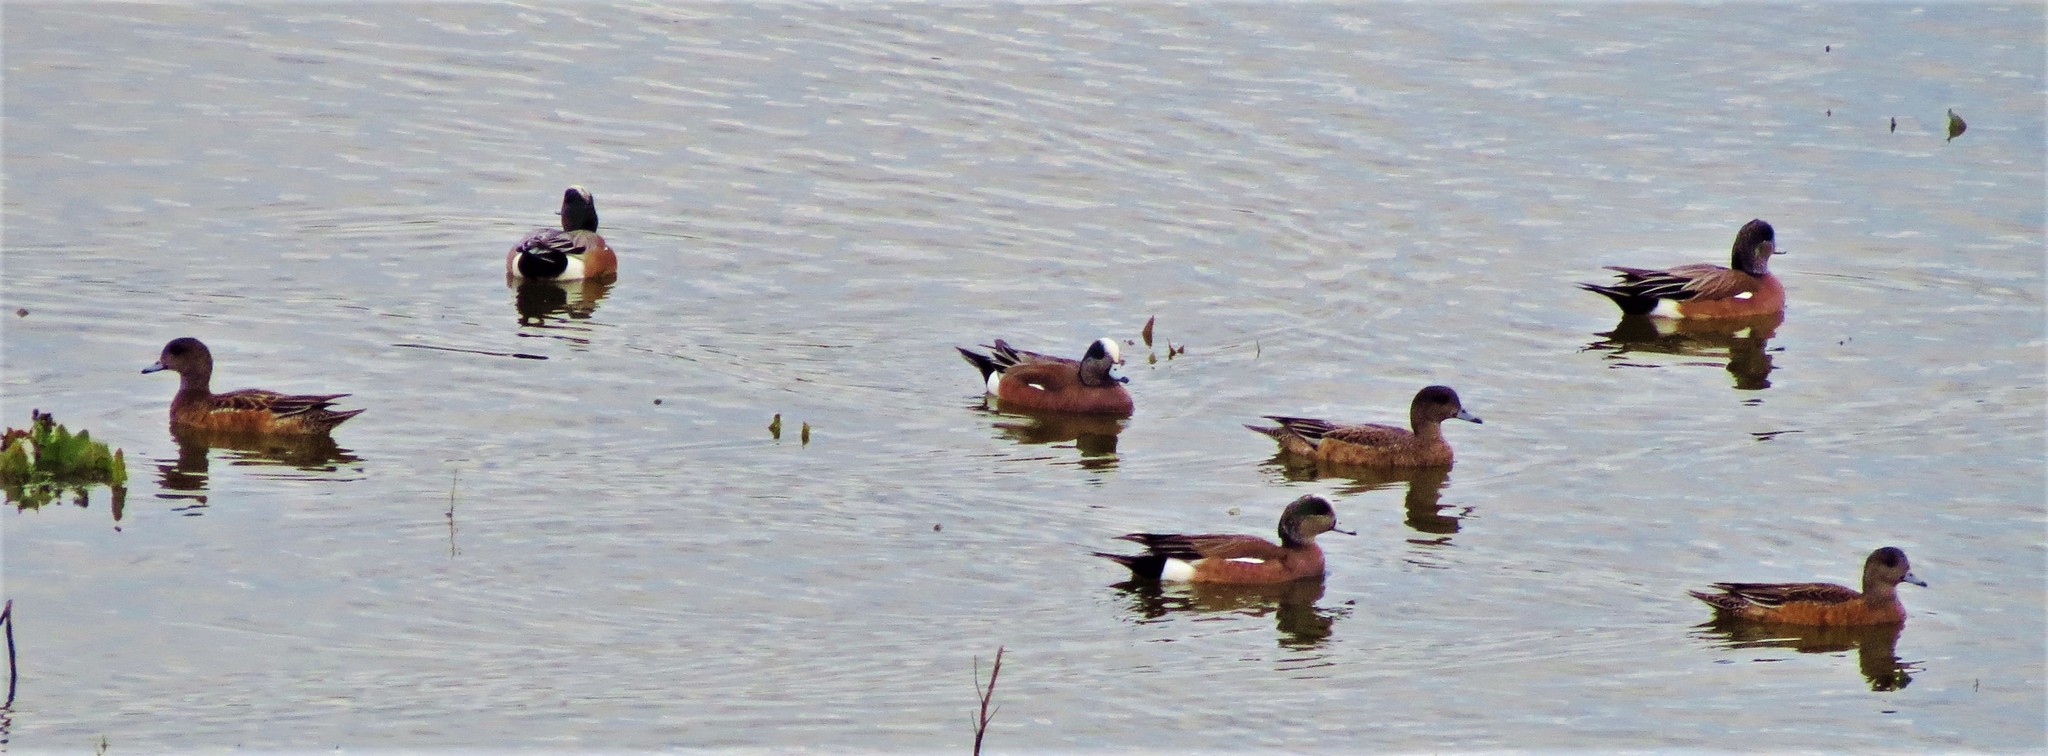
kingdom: Animalia
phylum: Chordata
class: Aves
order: Anseriformes
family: Anatidae
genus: Mareca
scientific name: Mareca americana
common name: American wigeon
